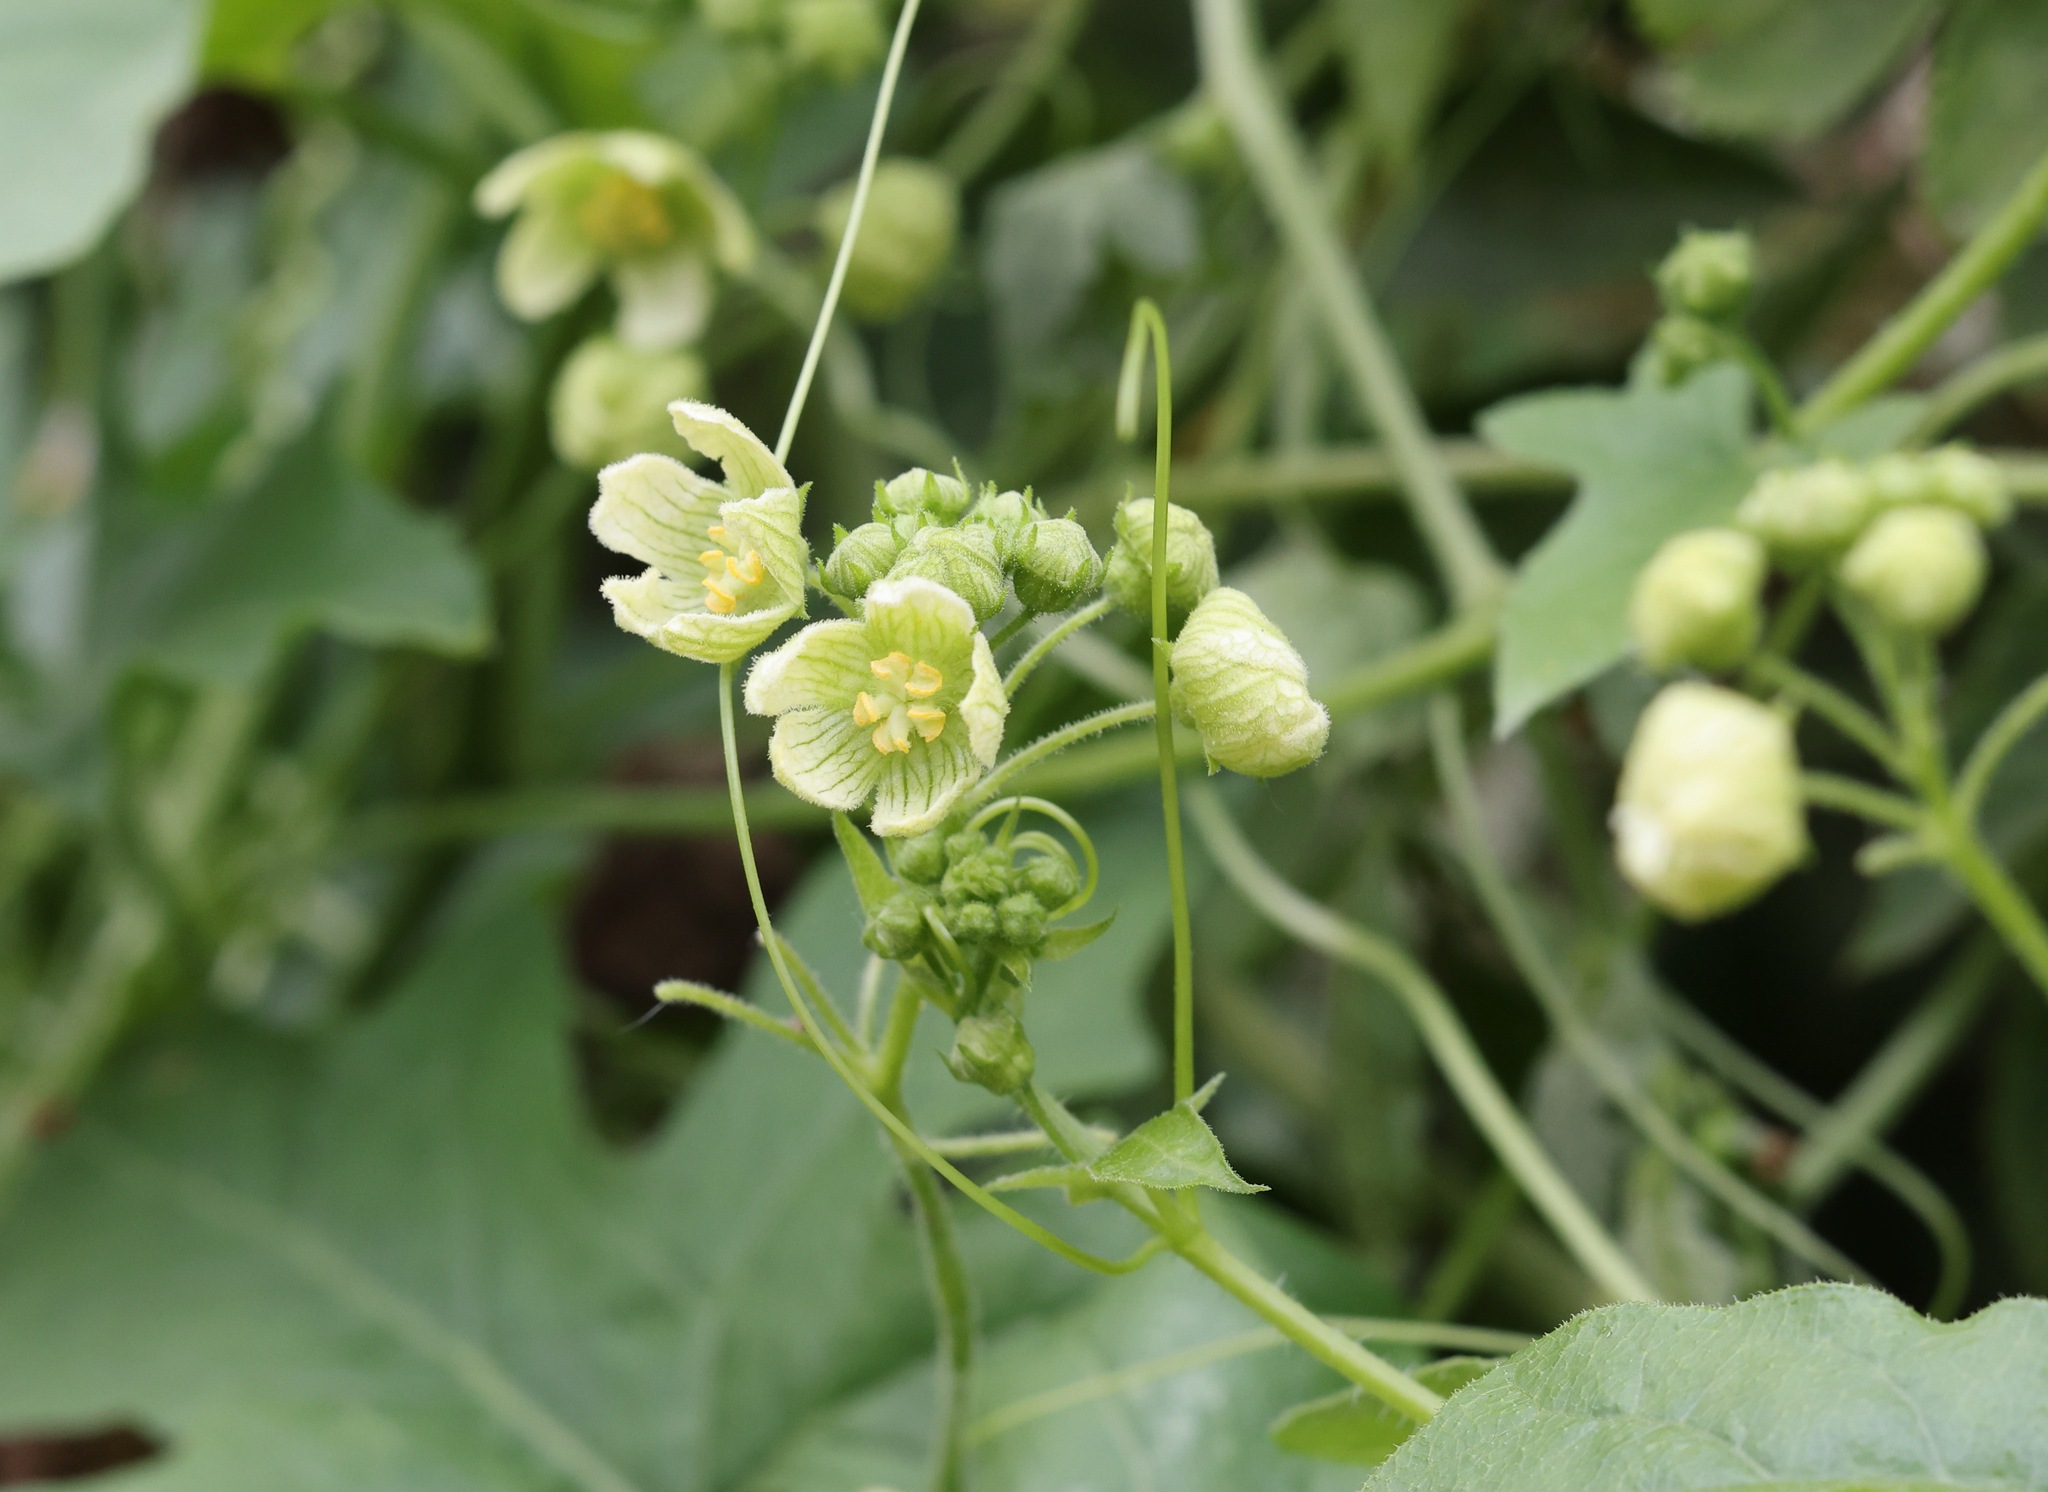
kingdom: Plantae
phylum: Tracheophyta
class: Magnoliopsida
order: Cucurbitales
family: Cucurbitaceae
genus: Bryonia
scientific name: Bryonia cretica
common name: Cretan bryony
